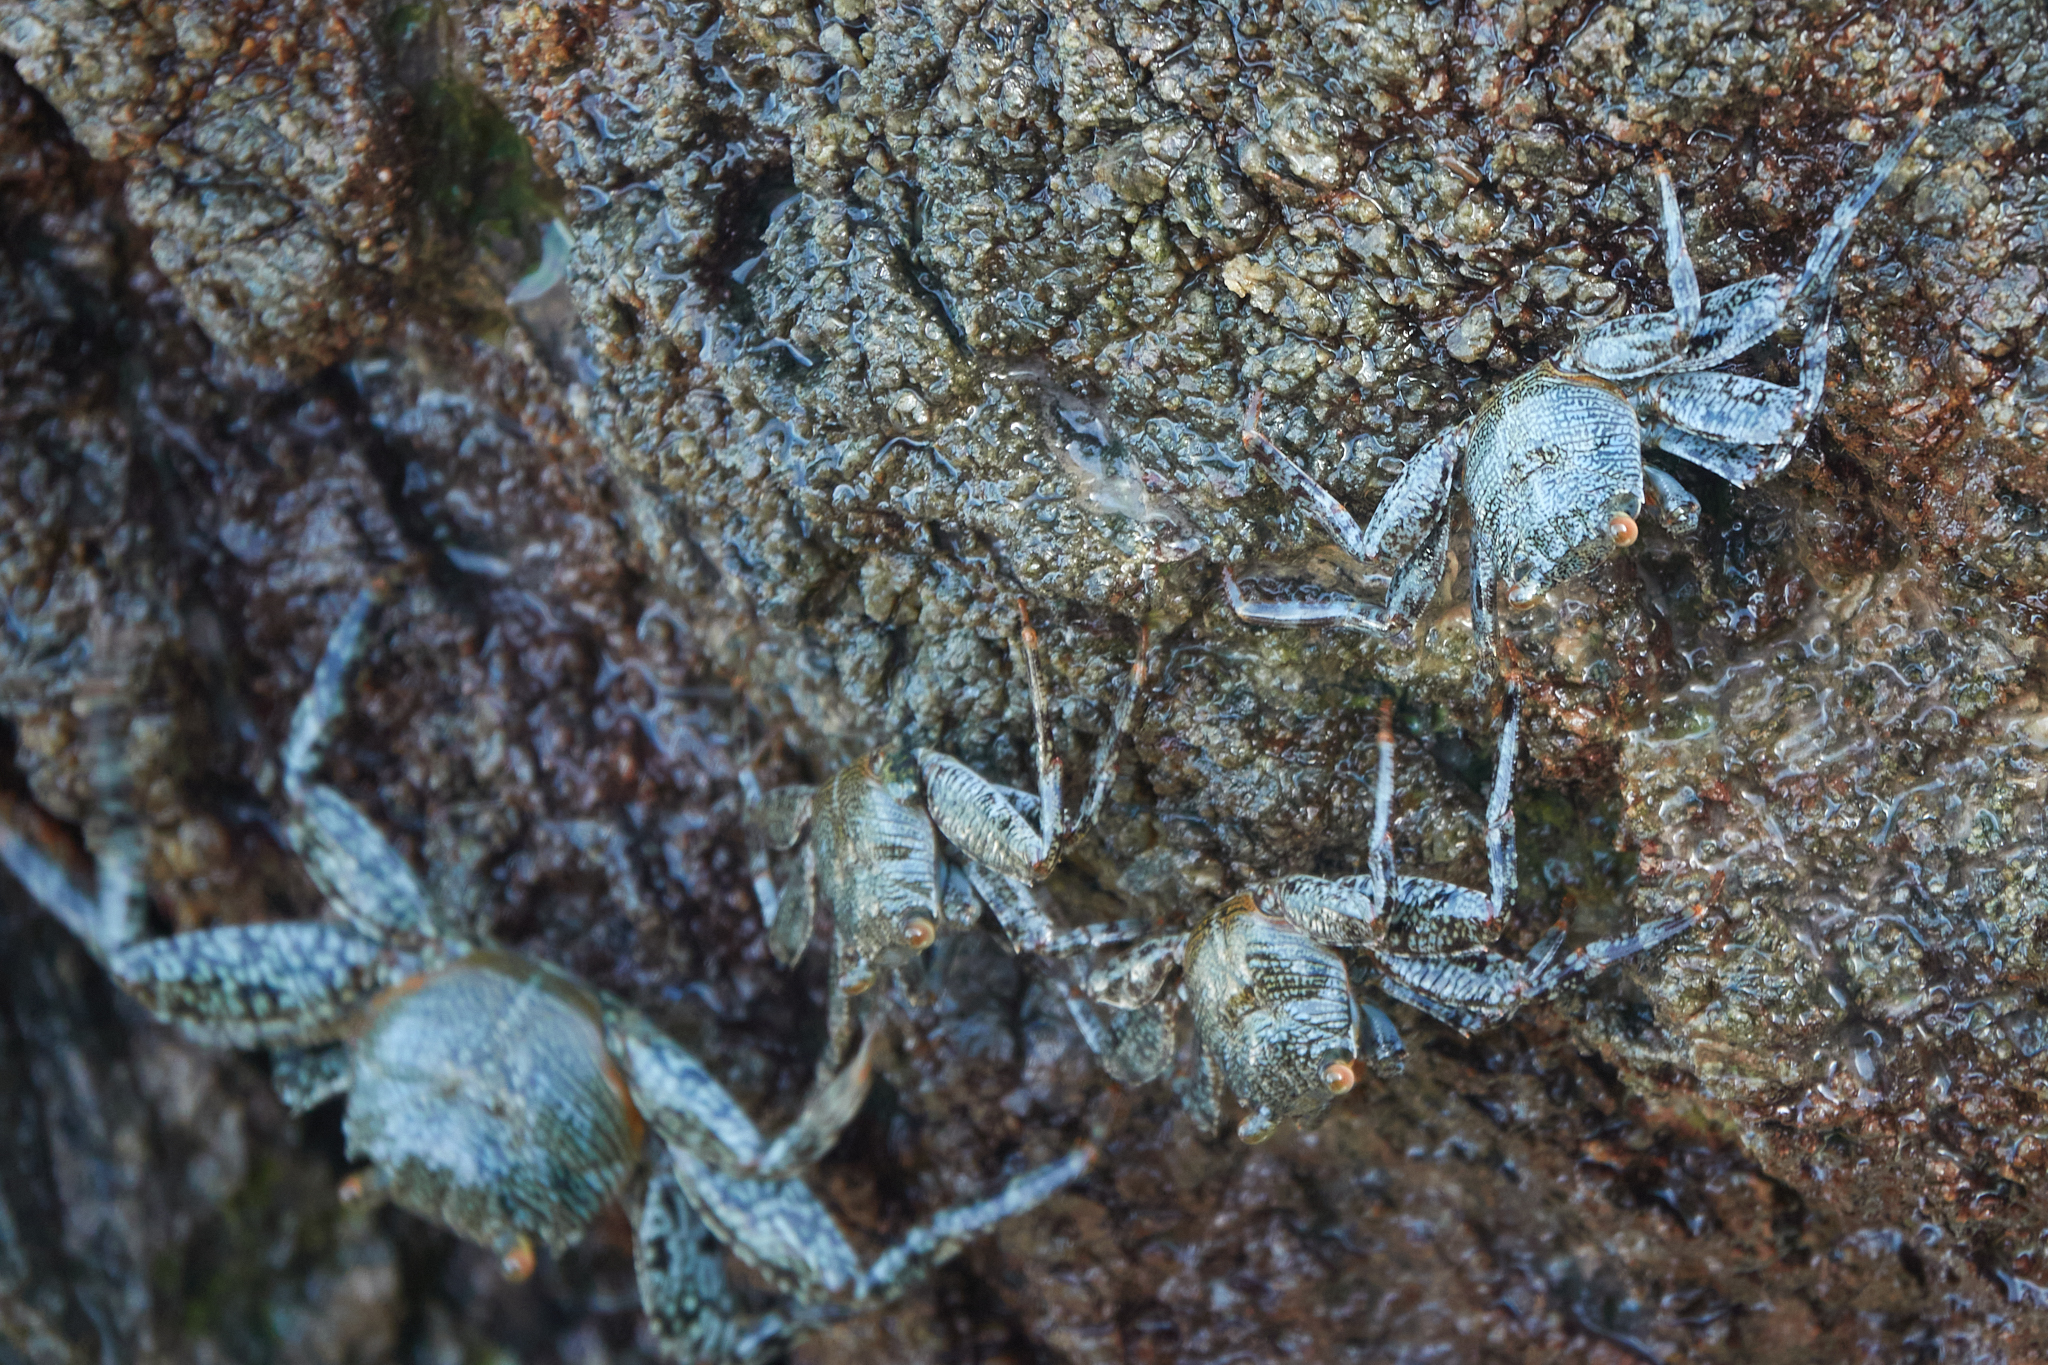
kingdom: Animalia
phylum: Arthropoda
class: Malacostraca
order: Decapoda
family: Grapsidae
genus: Grapsus
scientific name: Grapsus grapsus
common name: Sally lightfoot
